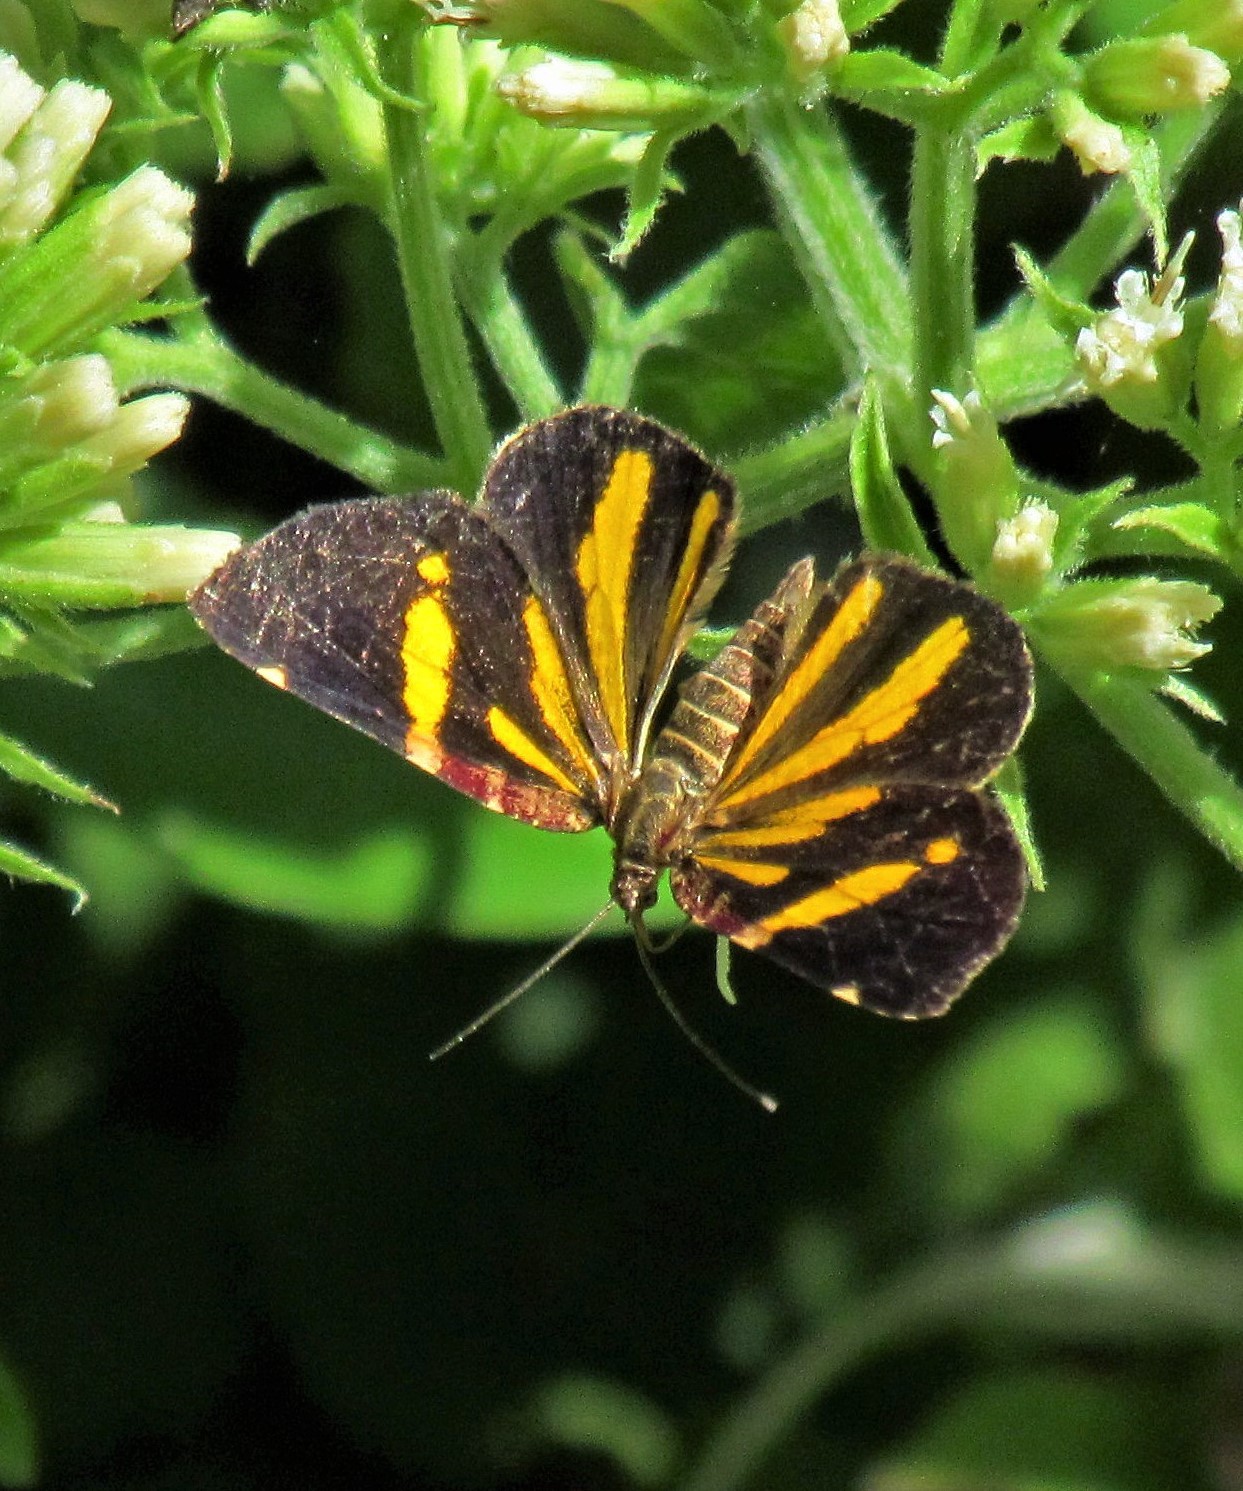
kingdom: Animalia
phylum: Arthropoda
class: Insecta
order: Lepidoptera
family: Geometridae
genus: Heterusia
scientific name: Heterusia quadruplicaria
